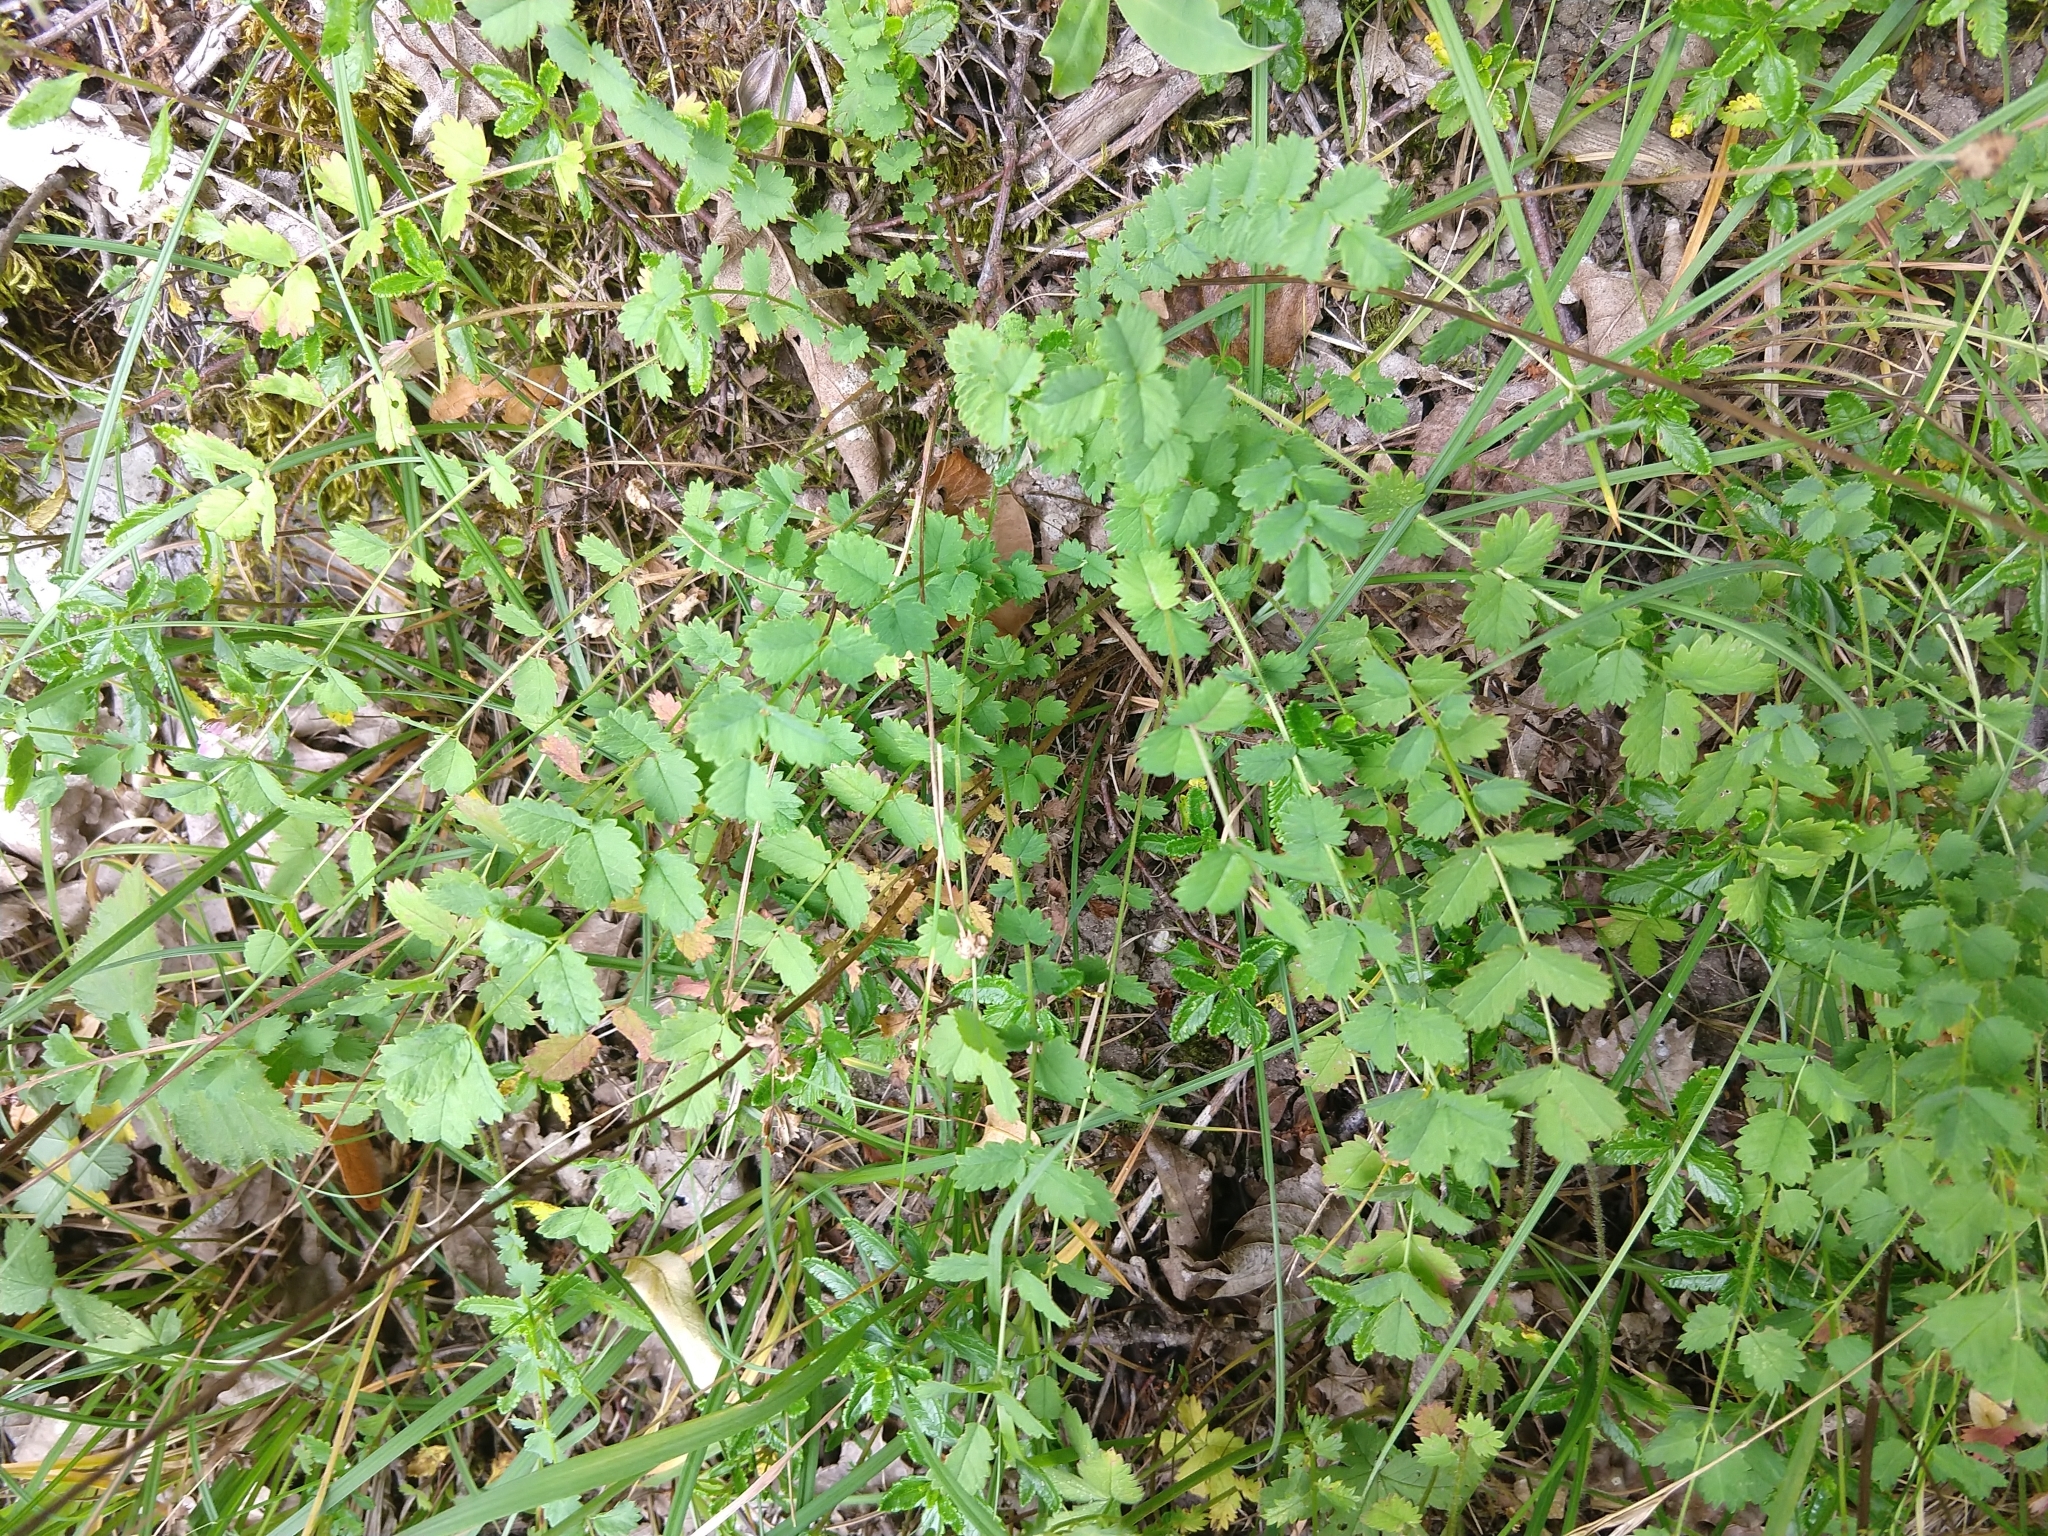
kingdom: Plantae
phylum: Tracheophyta
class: Magnoliopsida
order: Rosales
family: Rosaceae
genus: Poterium
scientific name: Poterium sanguisorba
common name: Salad burnet
